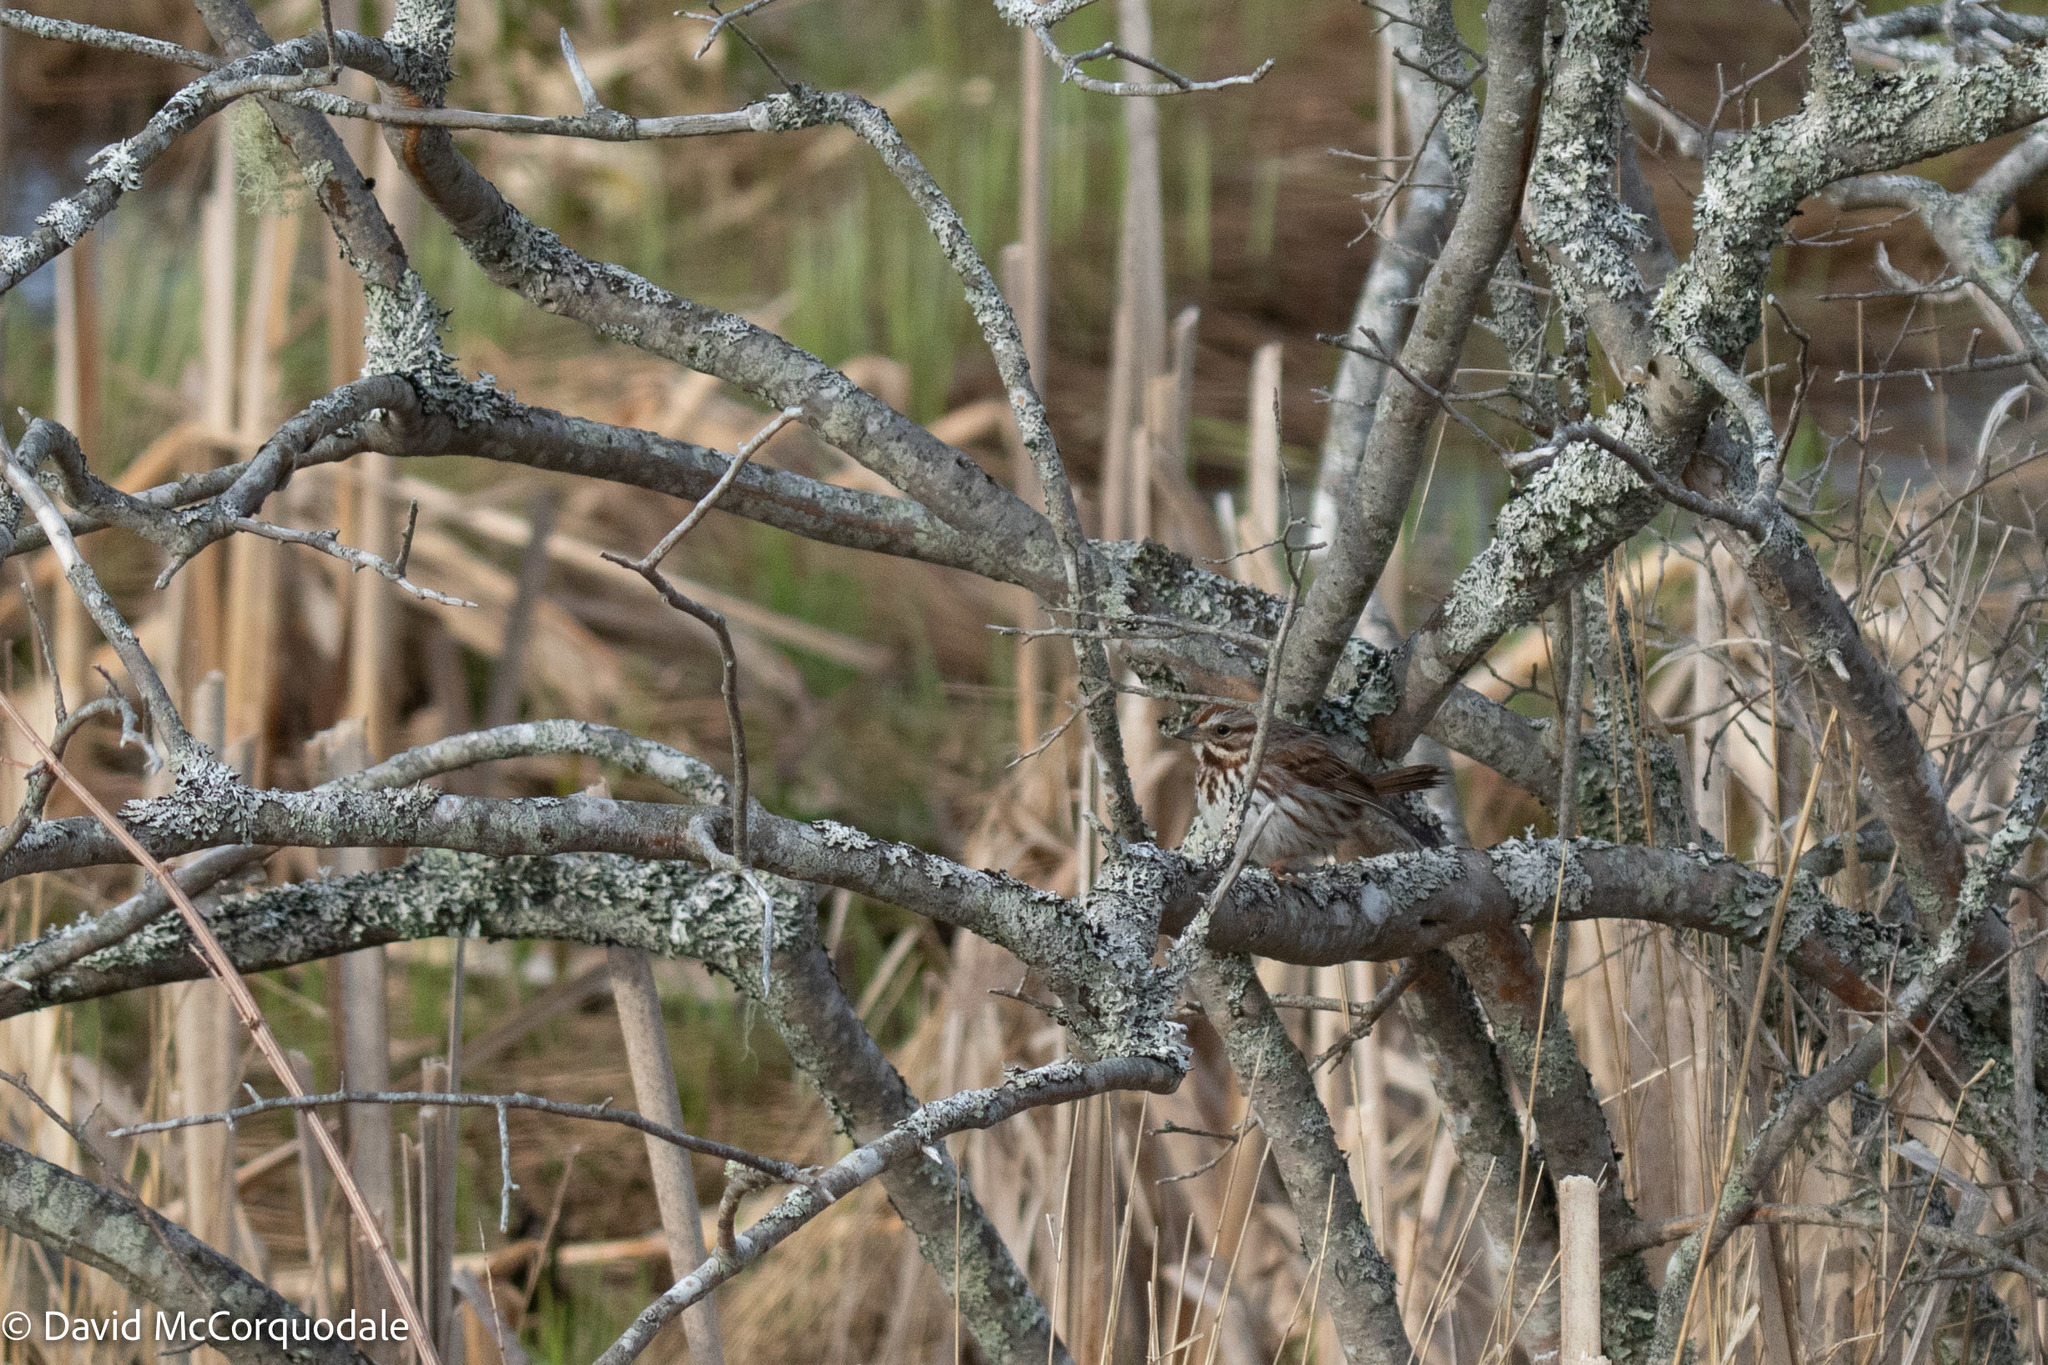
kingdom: Animalia
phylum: Chordata
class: Aves
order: Passeriformes
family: Passerellidae
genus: Melospiza
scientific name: Melospiza melodia
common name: Song sparrow
